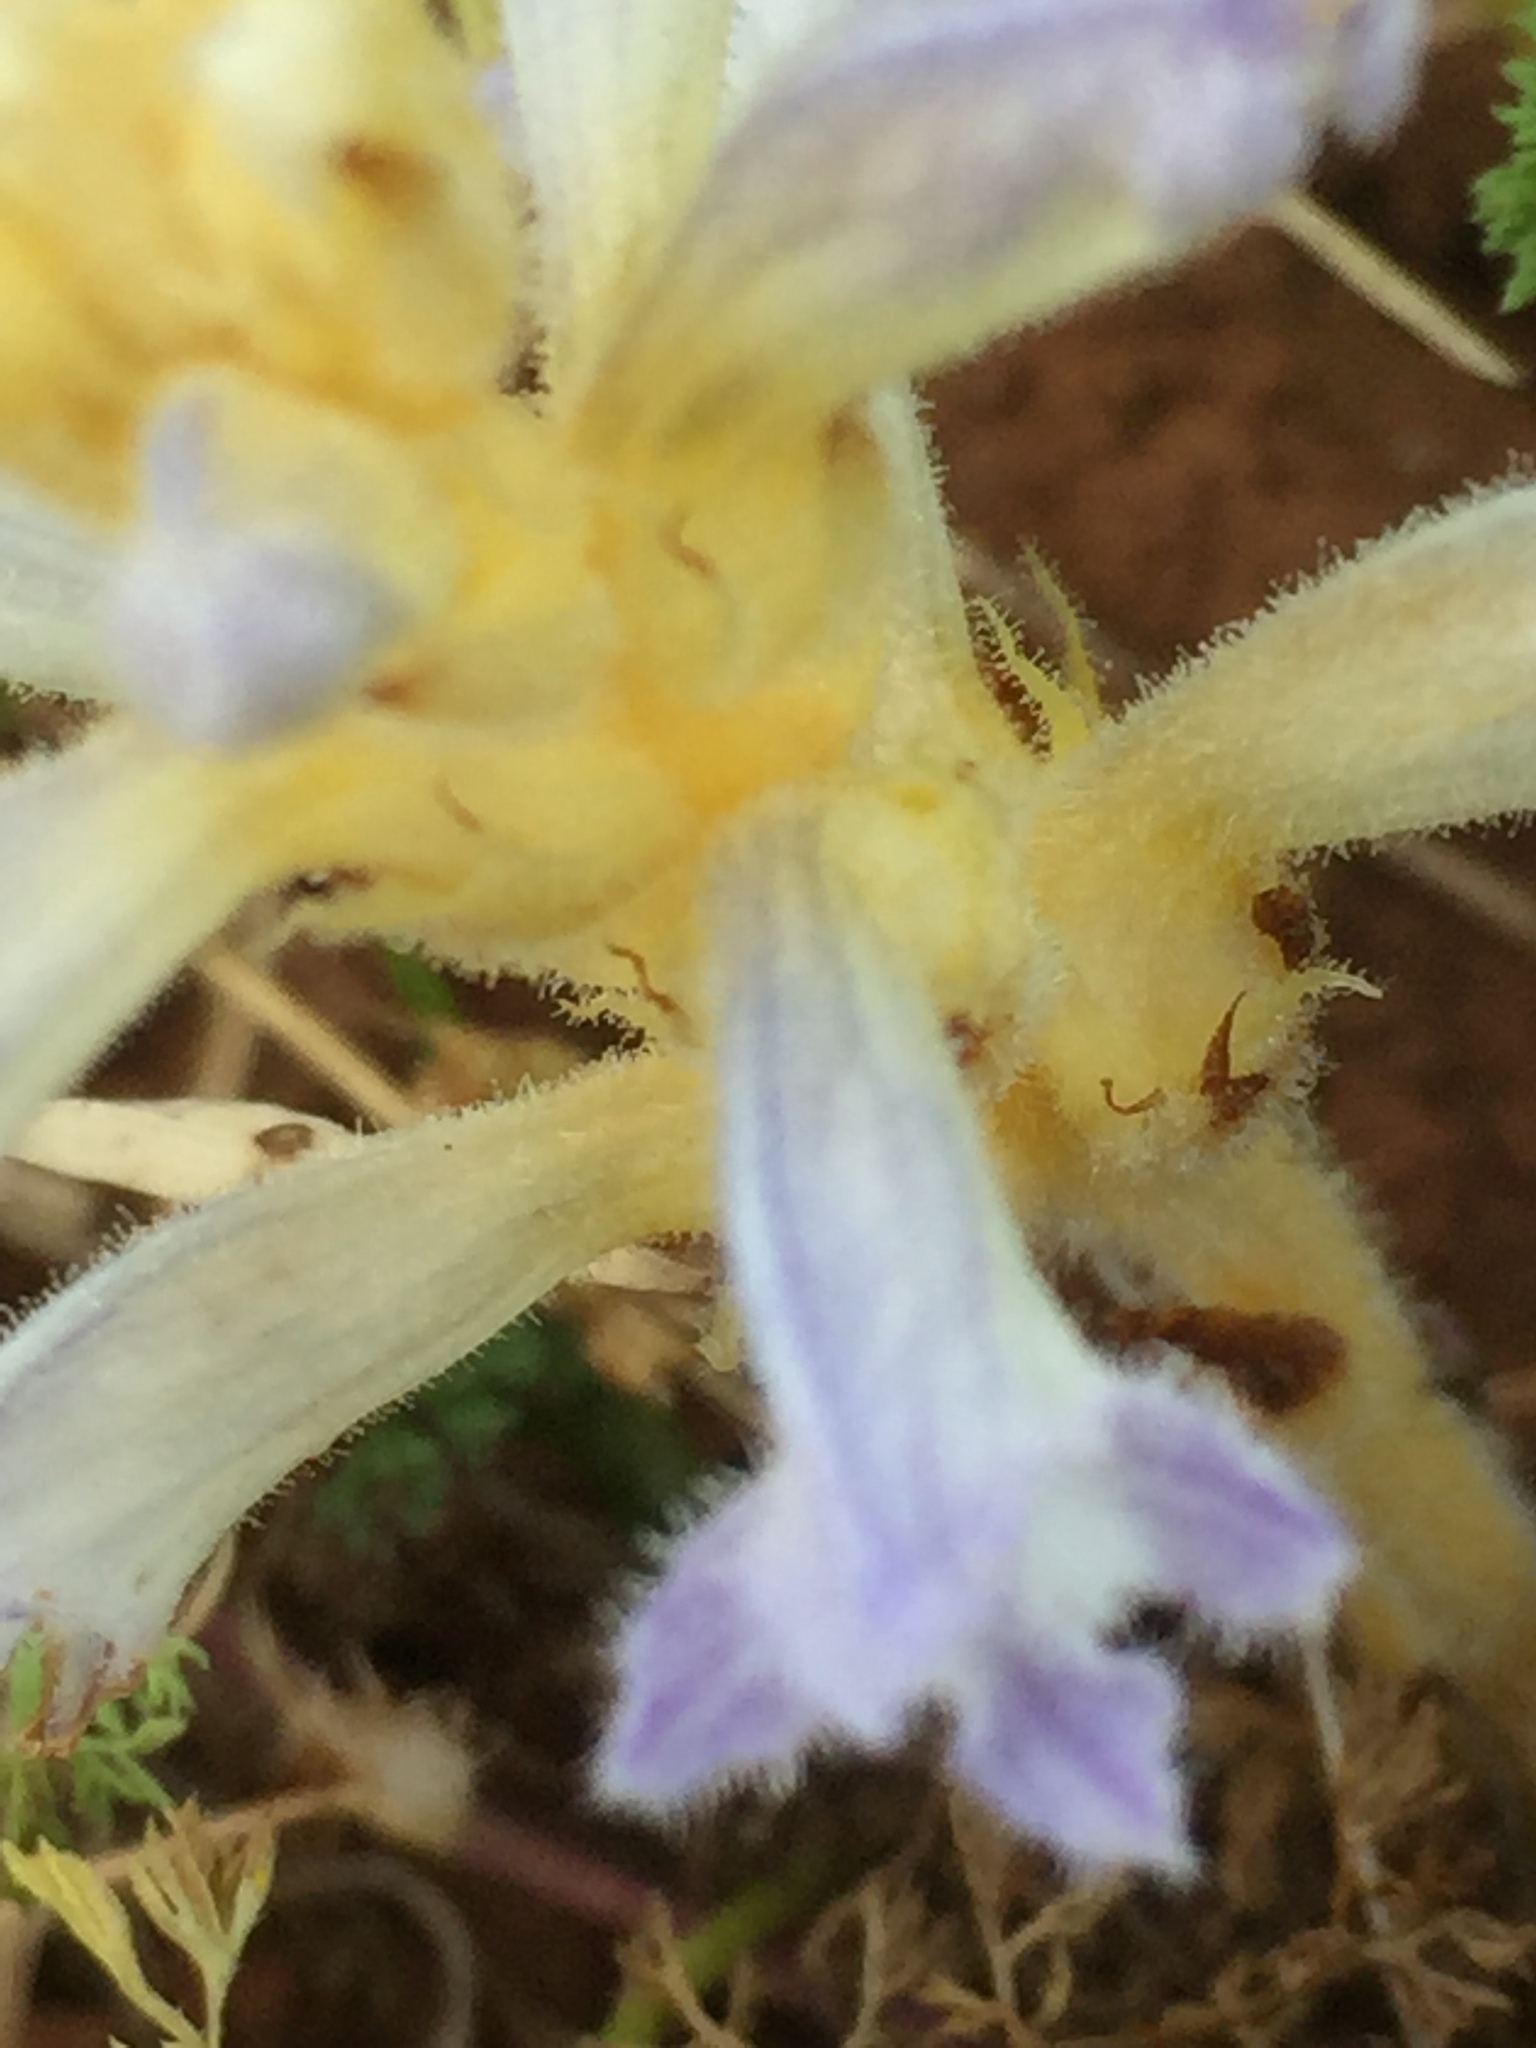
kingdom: Plantae
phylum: Tracheophyta
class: Magnoliopsida
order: Lamiales
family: Orobanchaceae
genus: Phelipanche
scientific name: Phelipanche purpurea
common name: Purple broomrape
